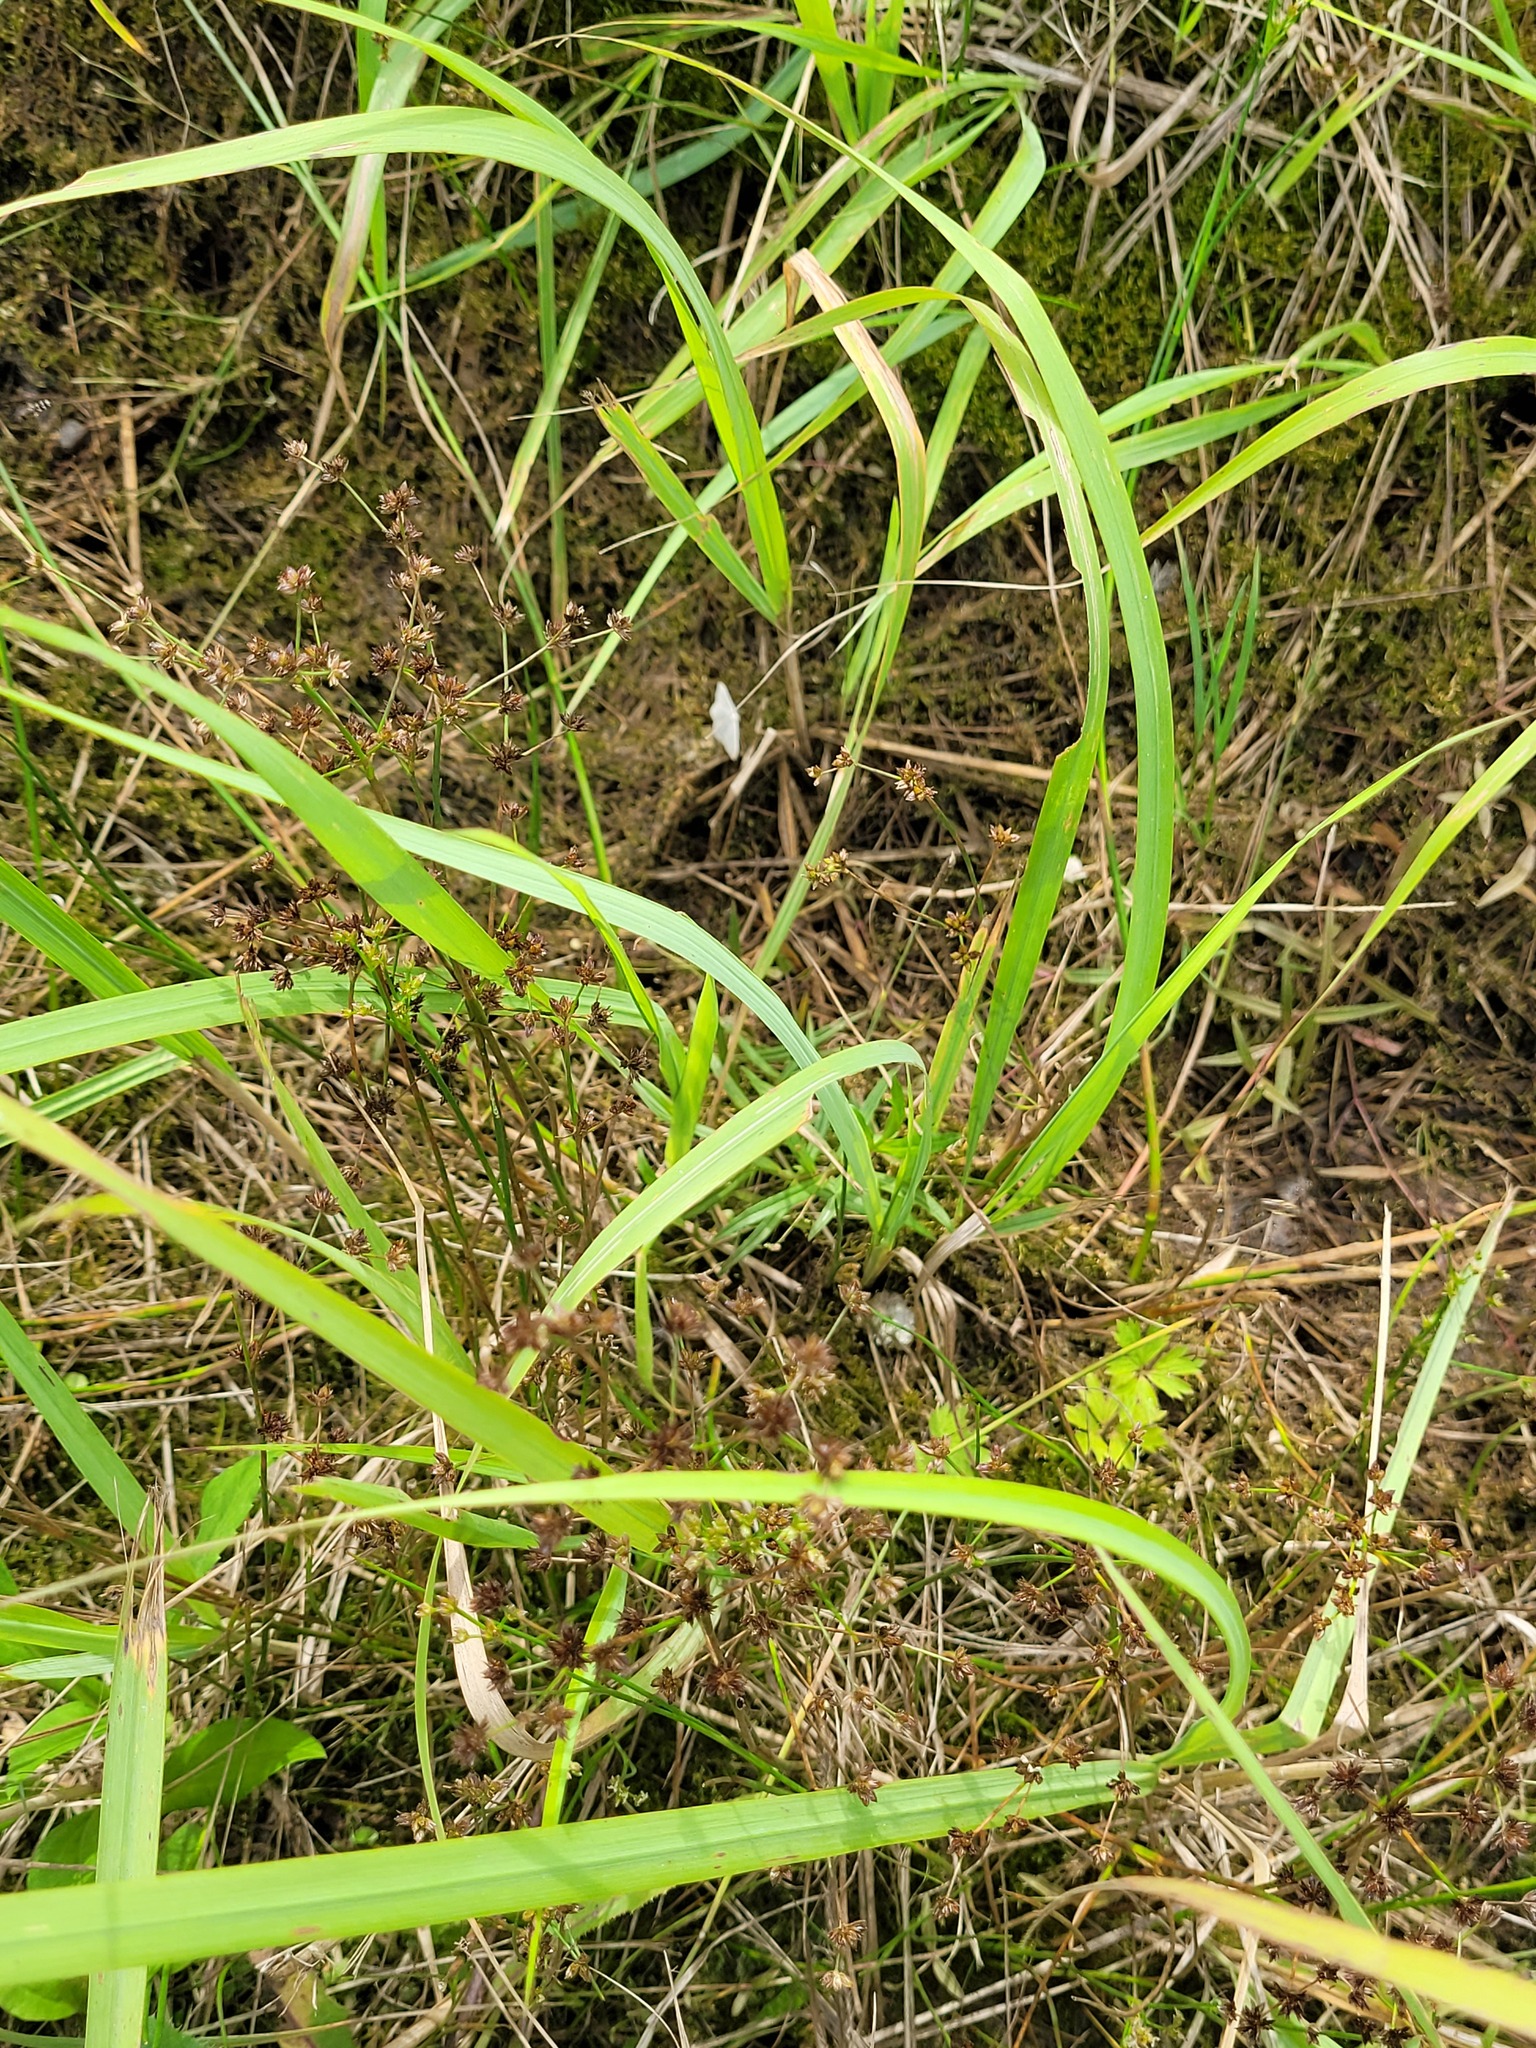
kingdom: Plantae
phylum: Tracheophyta
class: Liliopsida
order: Poales
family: Juncaceae
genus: Juncus
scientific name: Juncus articulatus
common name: Jointed rush
